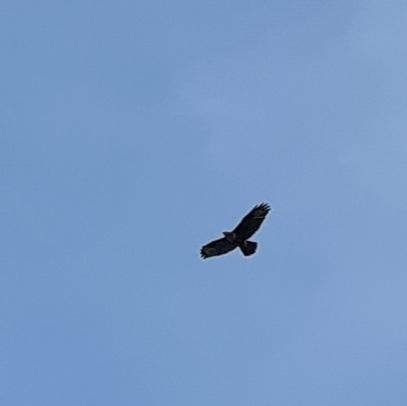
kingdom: Animalia
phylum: Chordata
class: Aves
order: Accipitriformes
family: Accipitridae
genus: Buteo
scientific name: Buteo buteo
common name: Common buzzard
